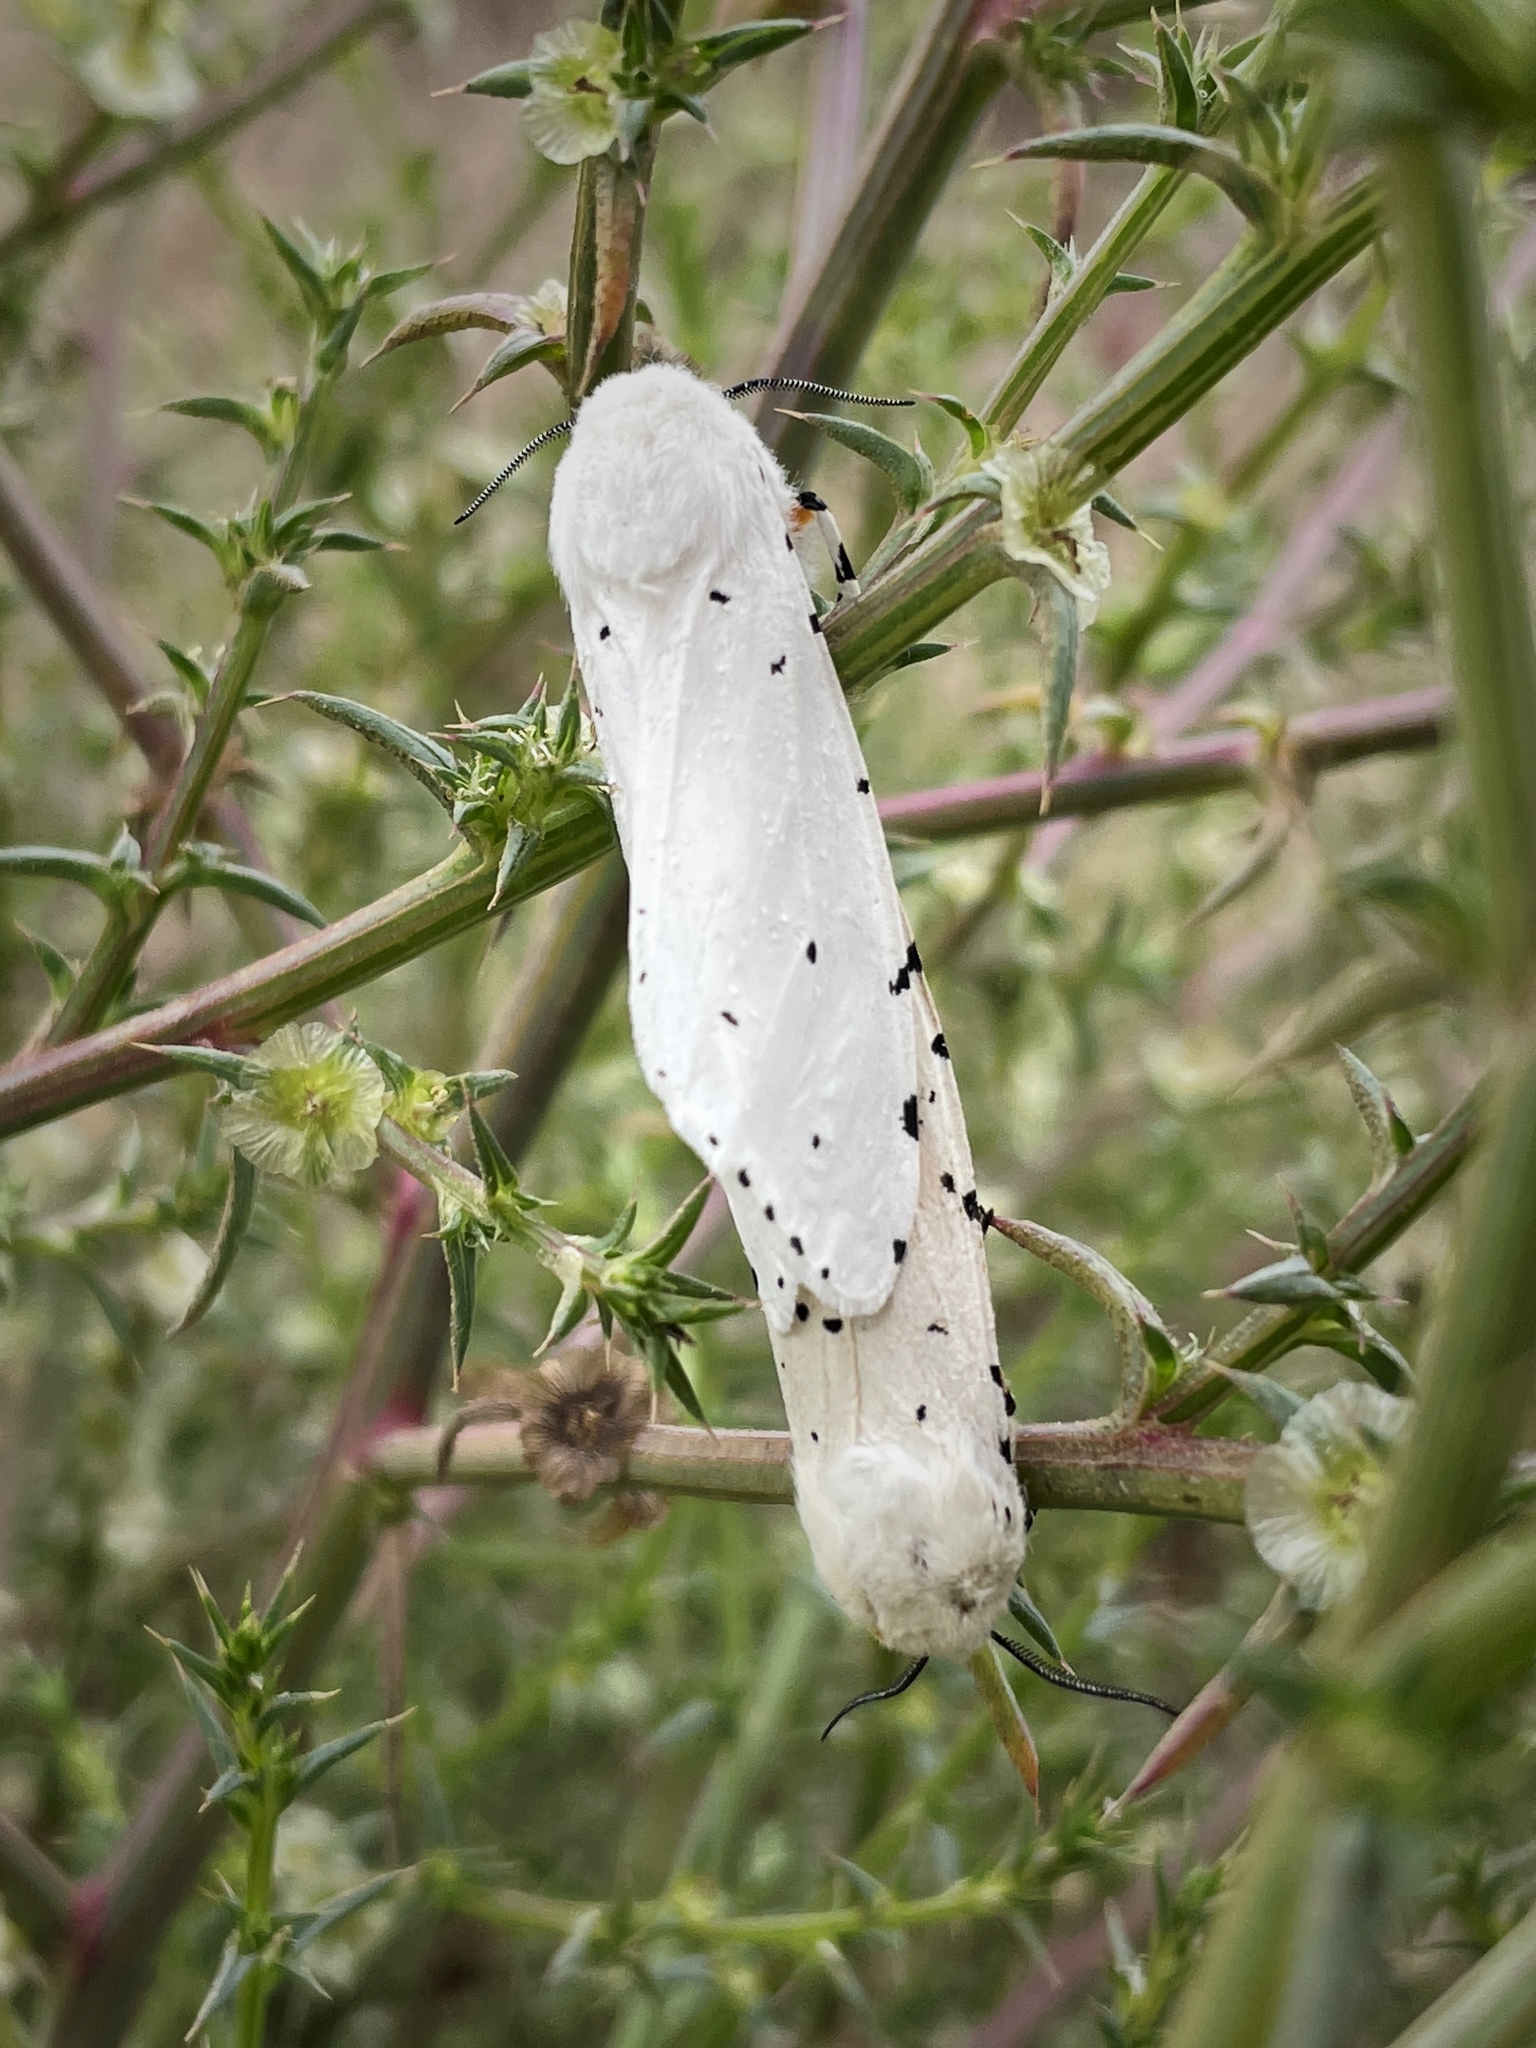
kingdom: Animalia
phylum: Arthropoda
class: Insecta
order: Lepidoptera
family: Erebidae
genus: Estigmene
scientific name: Estigmene acrea
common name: Salt marsh moth
